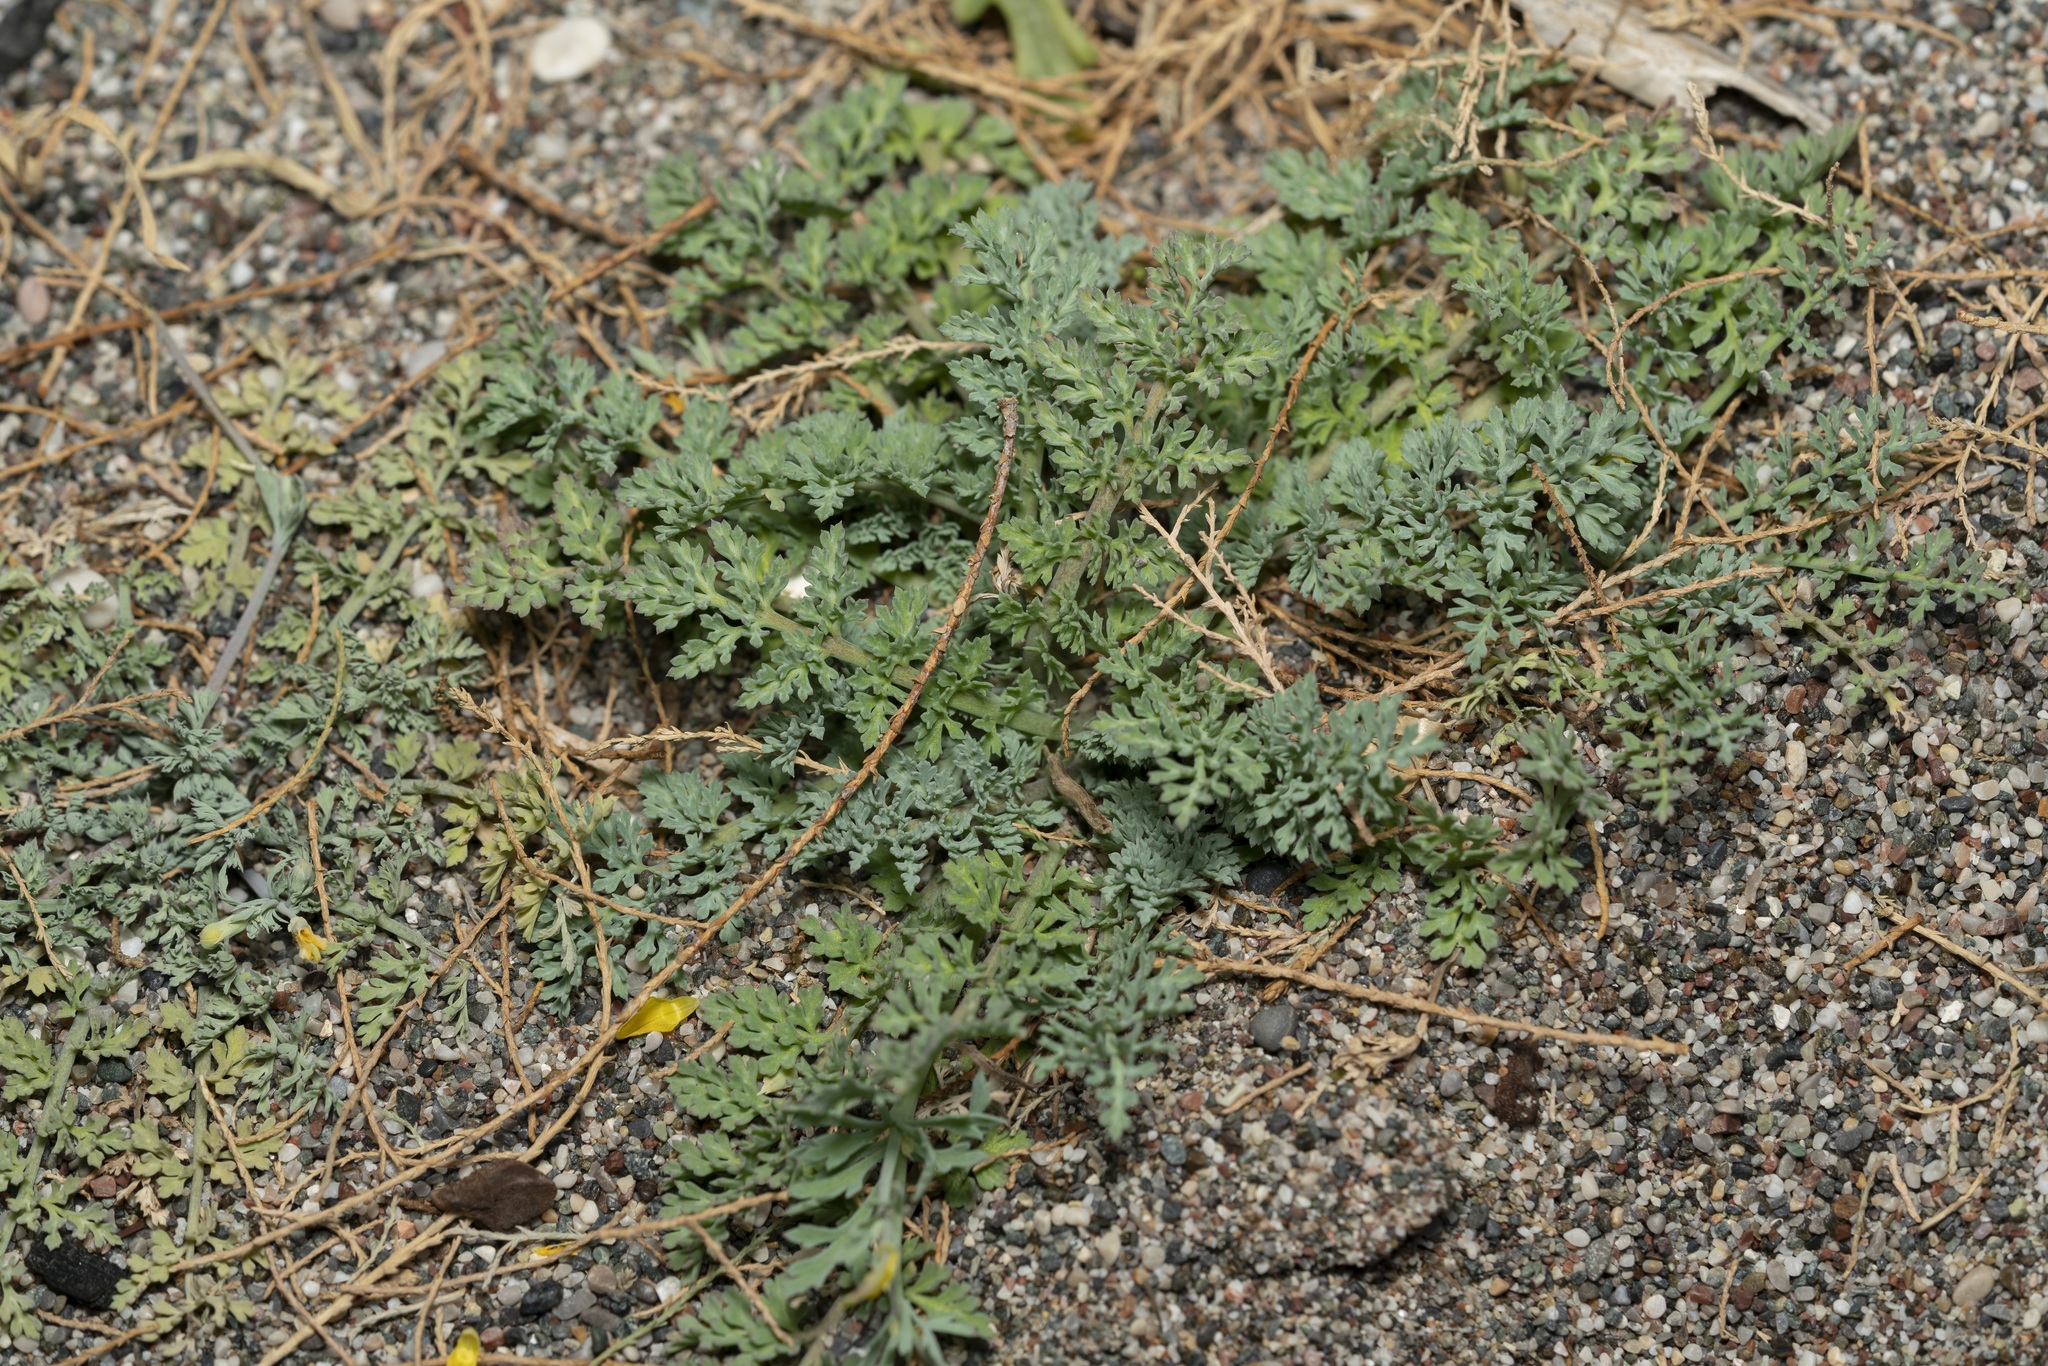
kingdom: Plantae
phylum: Tracheophyta
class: Magnoliopsida
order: Ranunculales
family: Papaveraceae
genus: Hypecoum
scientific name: Hypecoum torulosum
